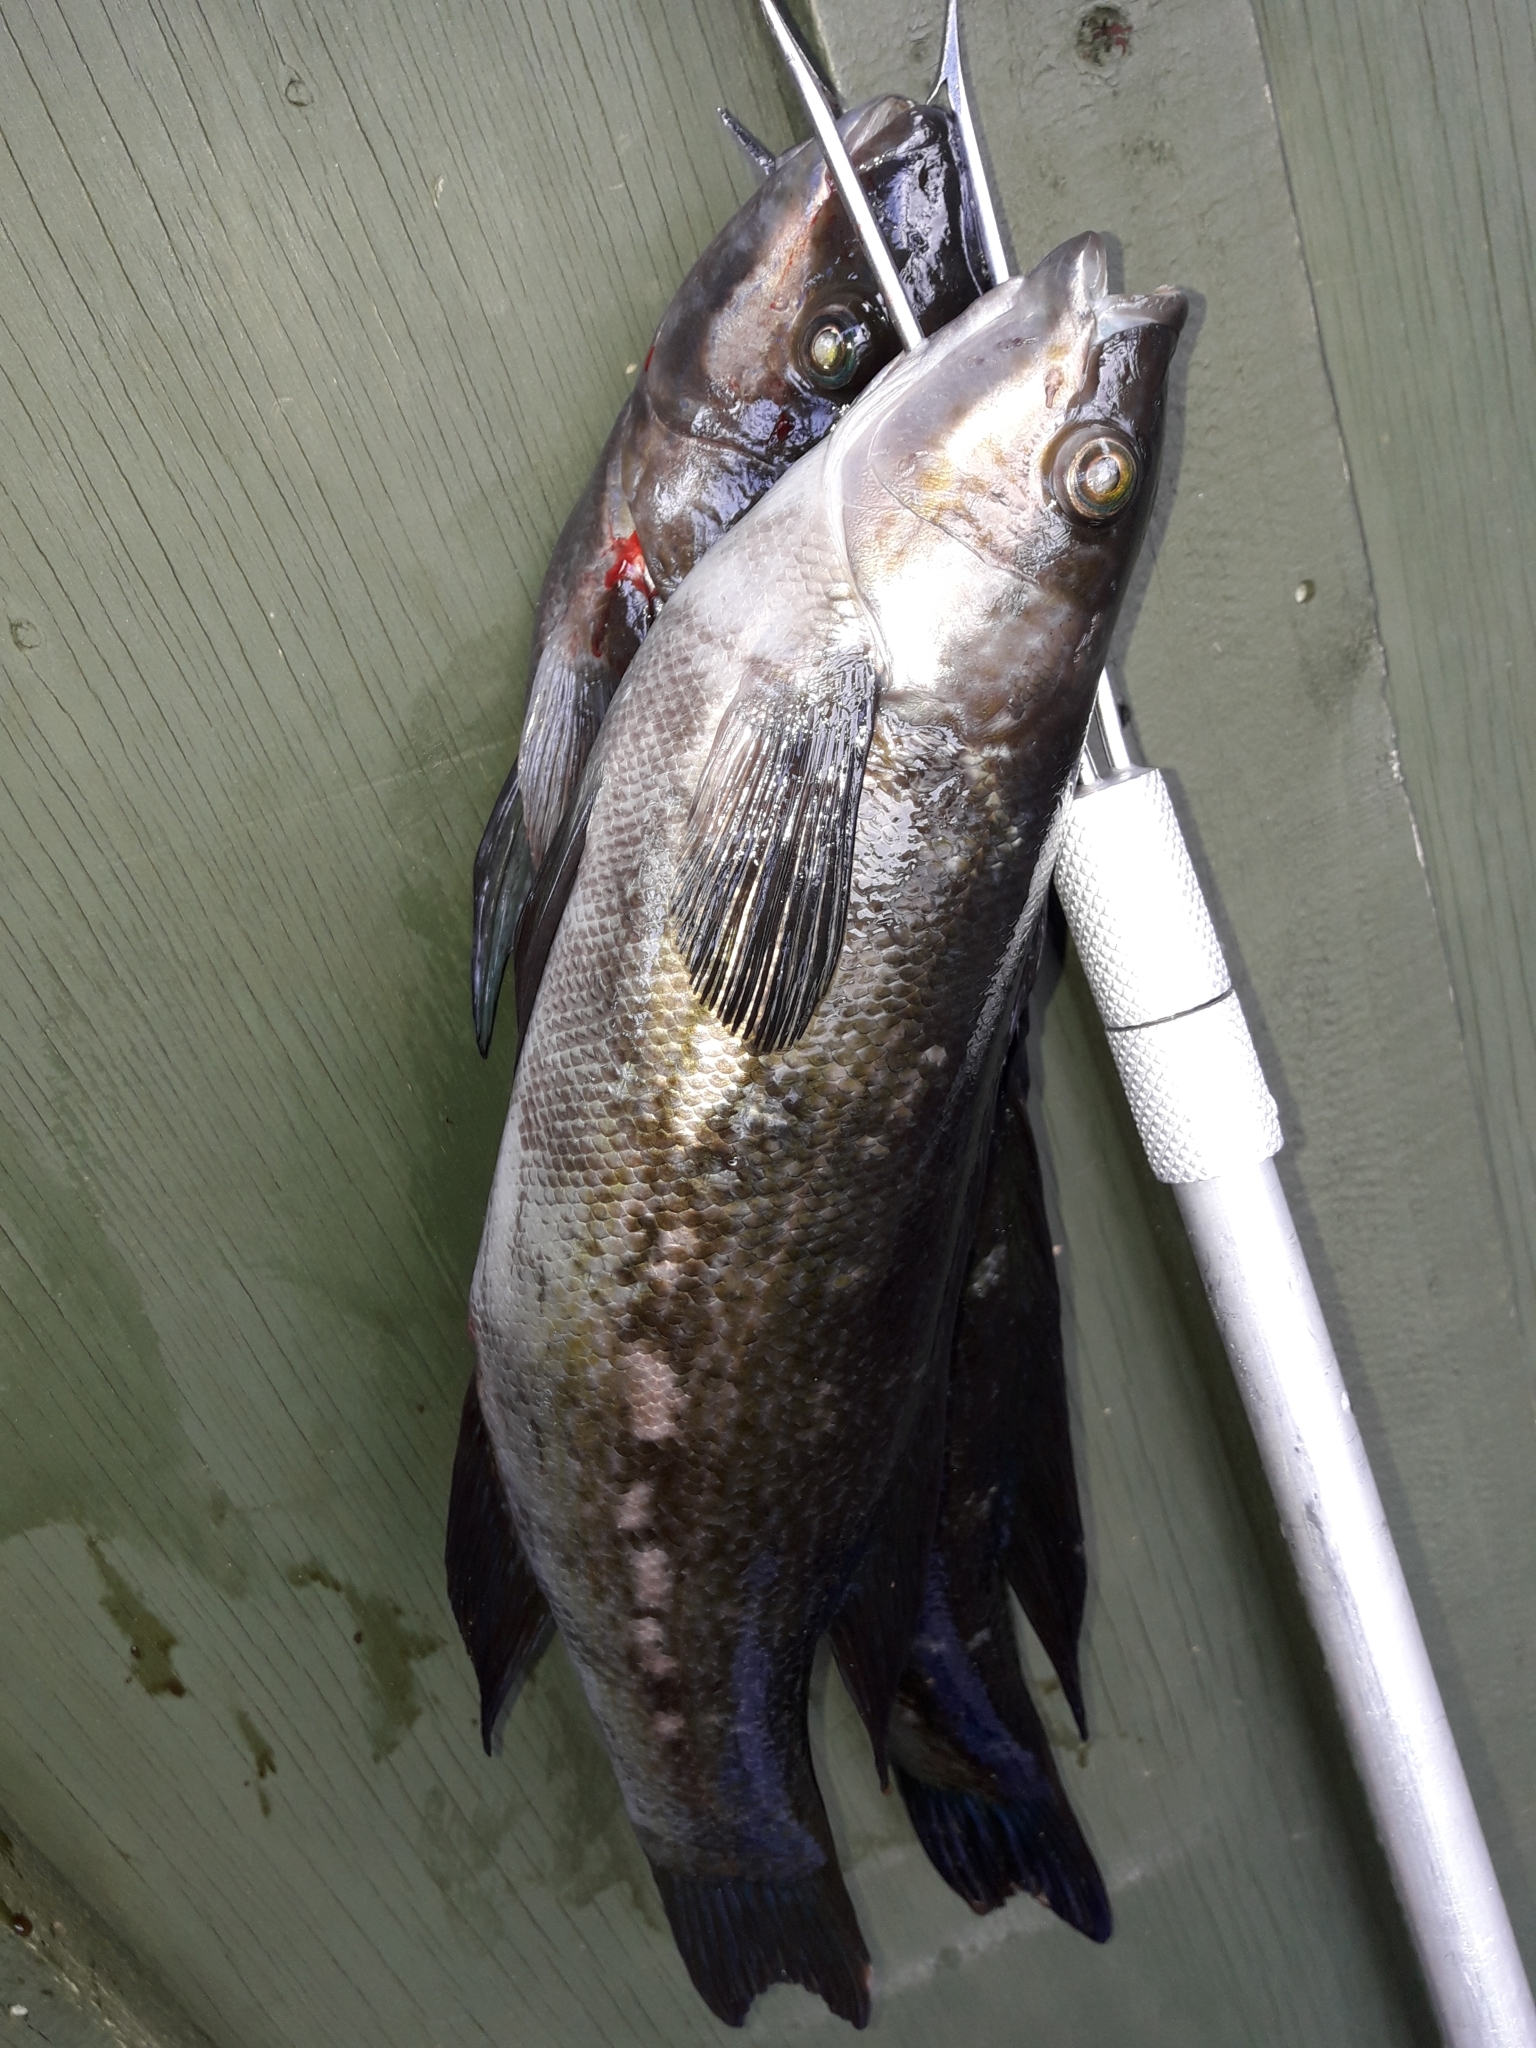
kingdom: Animalia
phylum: Chordata
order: Perciformes
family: Odacidae
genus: Odax
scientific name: Odax pullus
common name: Butterfish
